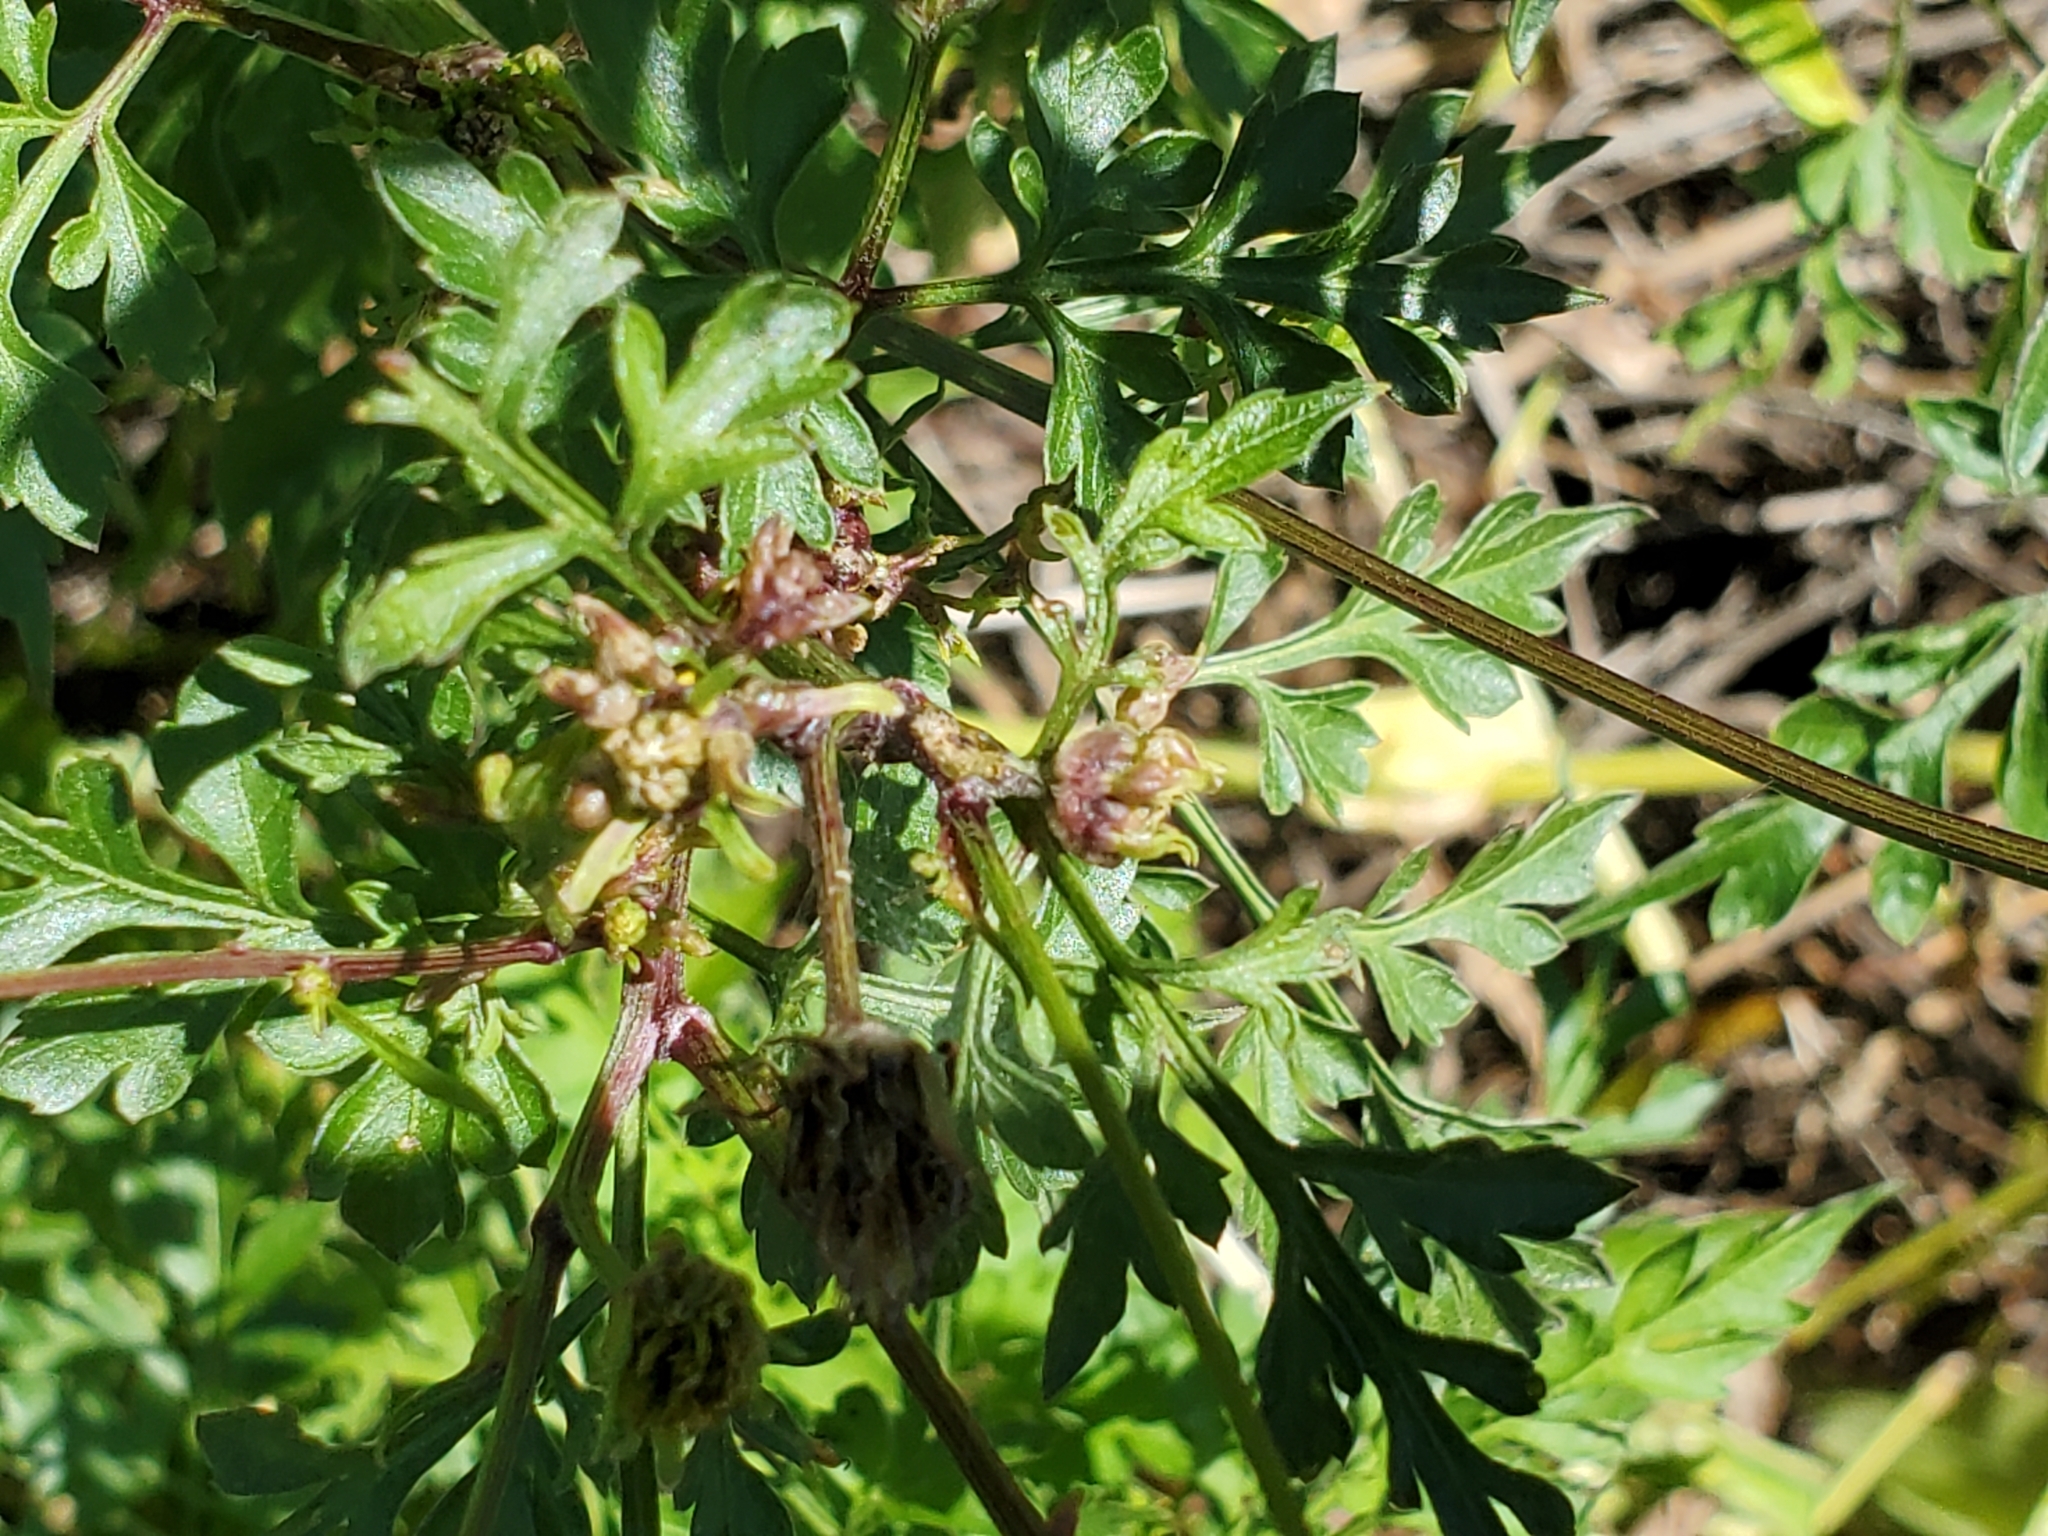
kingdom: Plantae
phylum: Tracheophyta
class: Magnoliopsida
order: Asterales
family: Asteraceae
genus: Bidens
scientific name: Bidens bipinnata
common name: Spanish-needles
